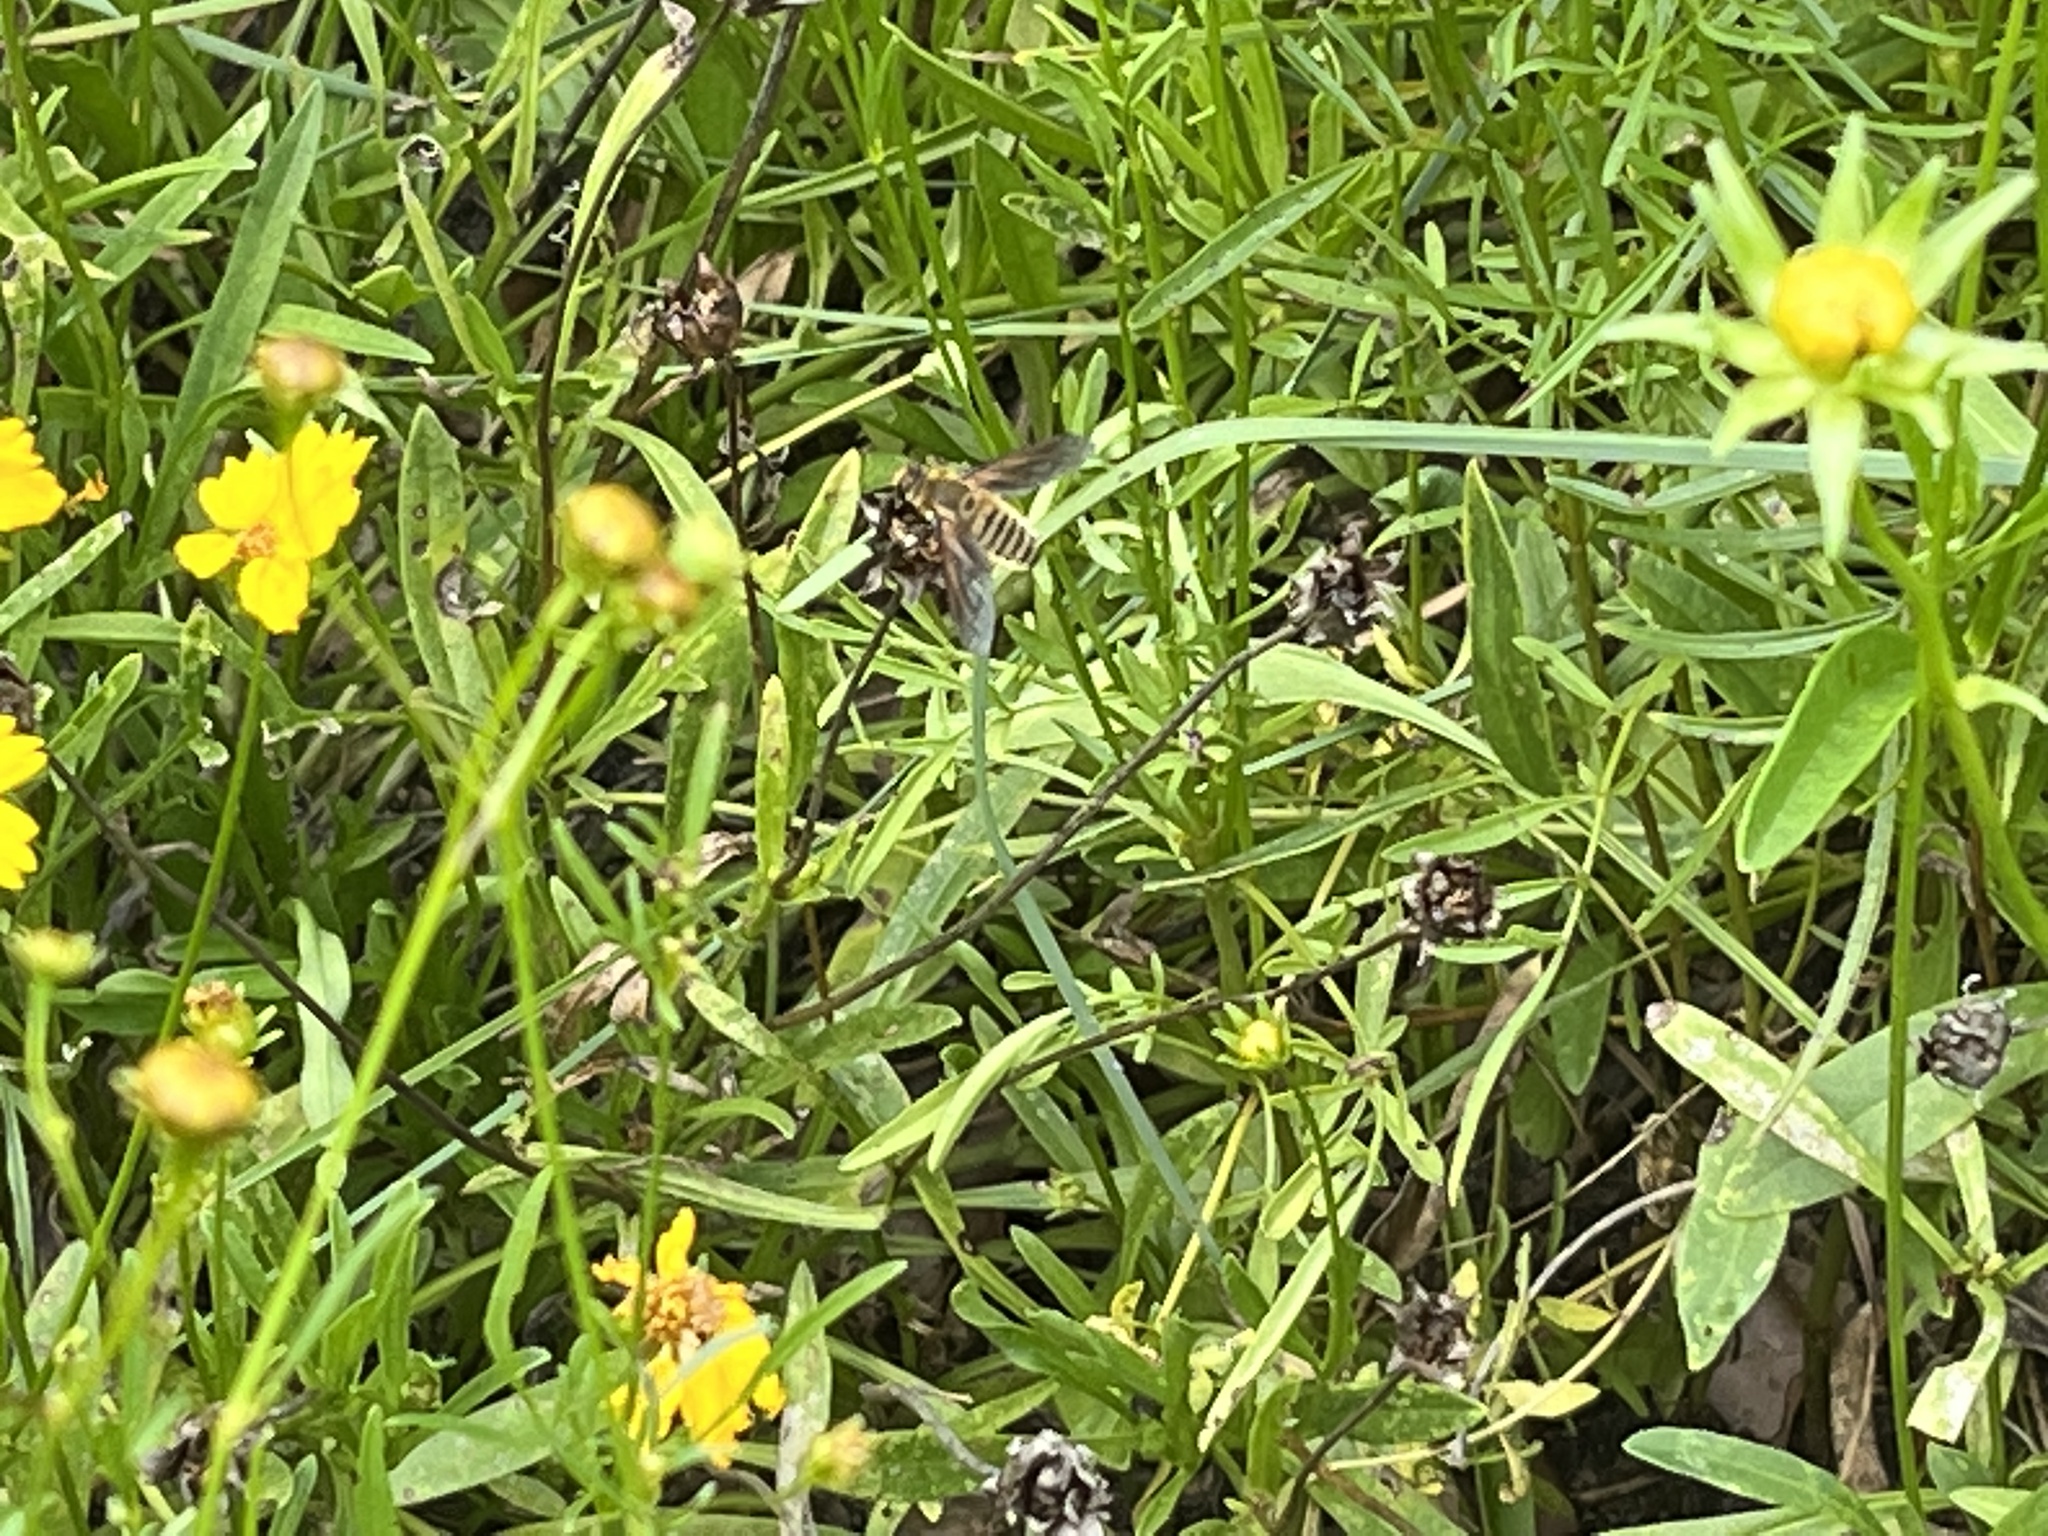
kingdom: Animalia
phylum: Arthropoda
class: Insecta
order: Diptera
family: Bombyliidae
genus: Poecilanthrax
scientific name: Poecilanthrax lucifer
